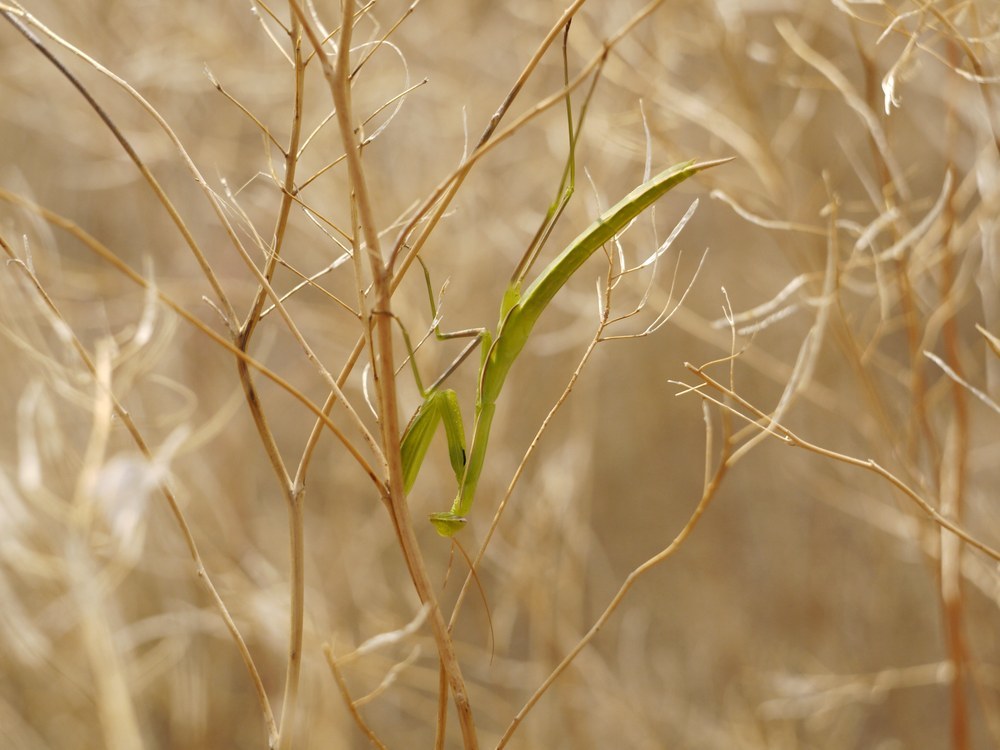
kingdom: Animalia
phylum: Arthropoda
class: Insecta
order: Mantodea
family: Mantidae
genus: Mantis
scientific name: Mantis religiosa
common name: Praying mantis
